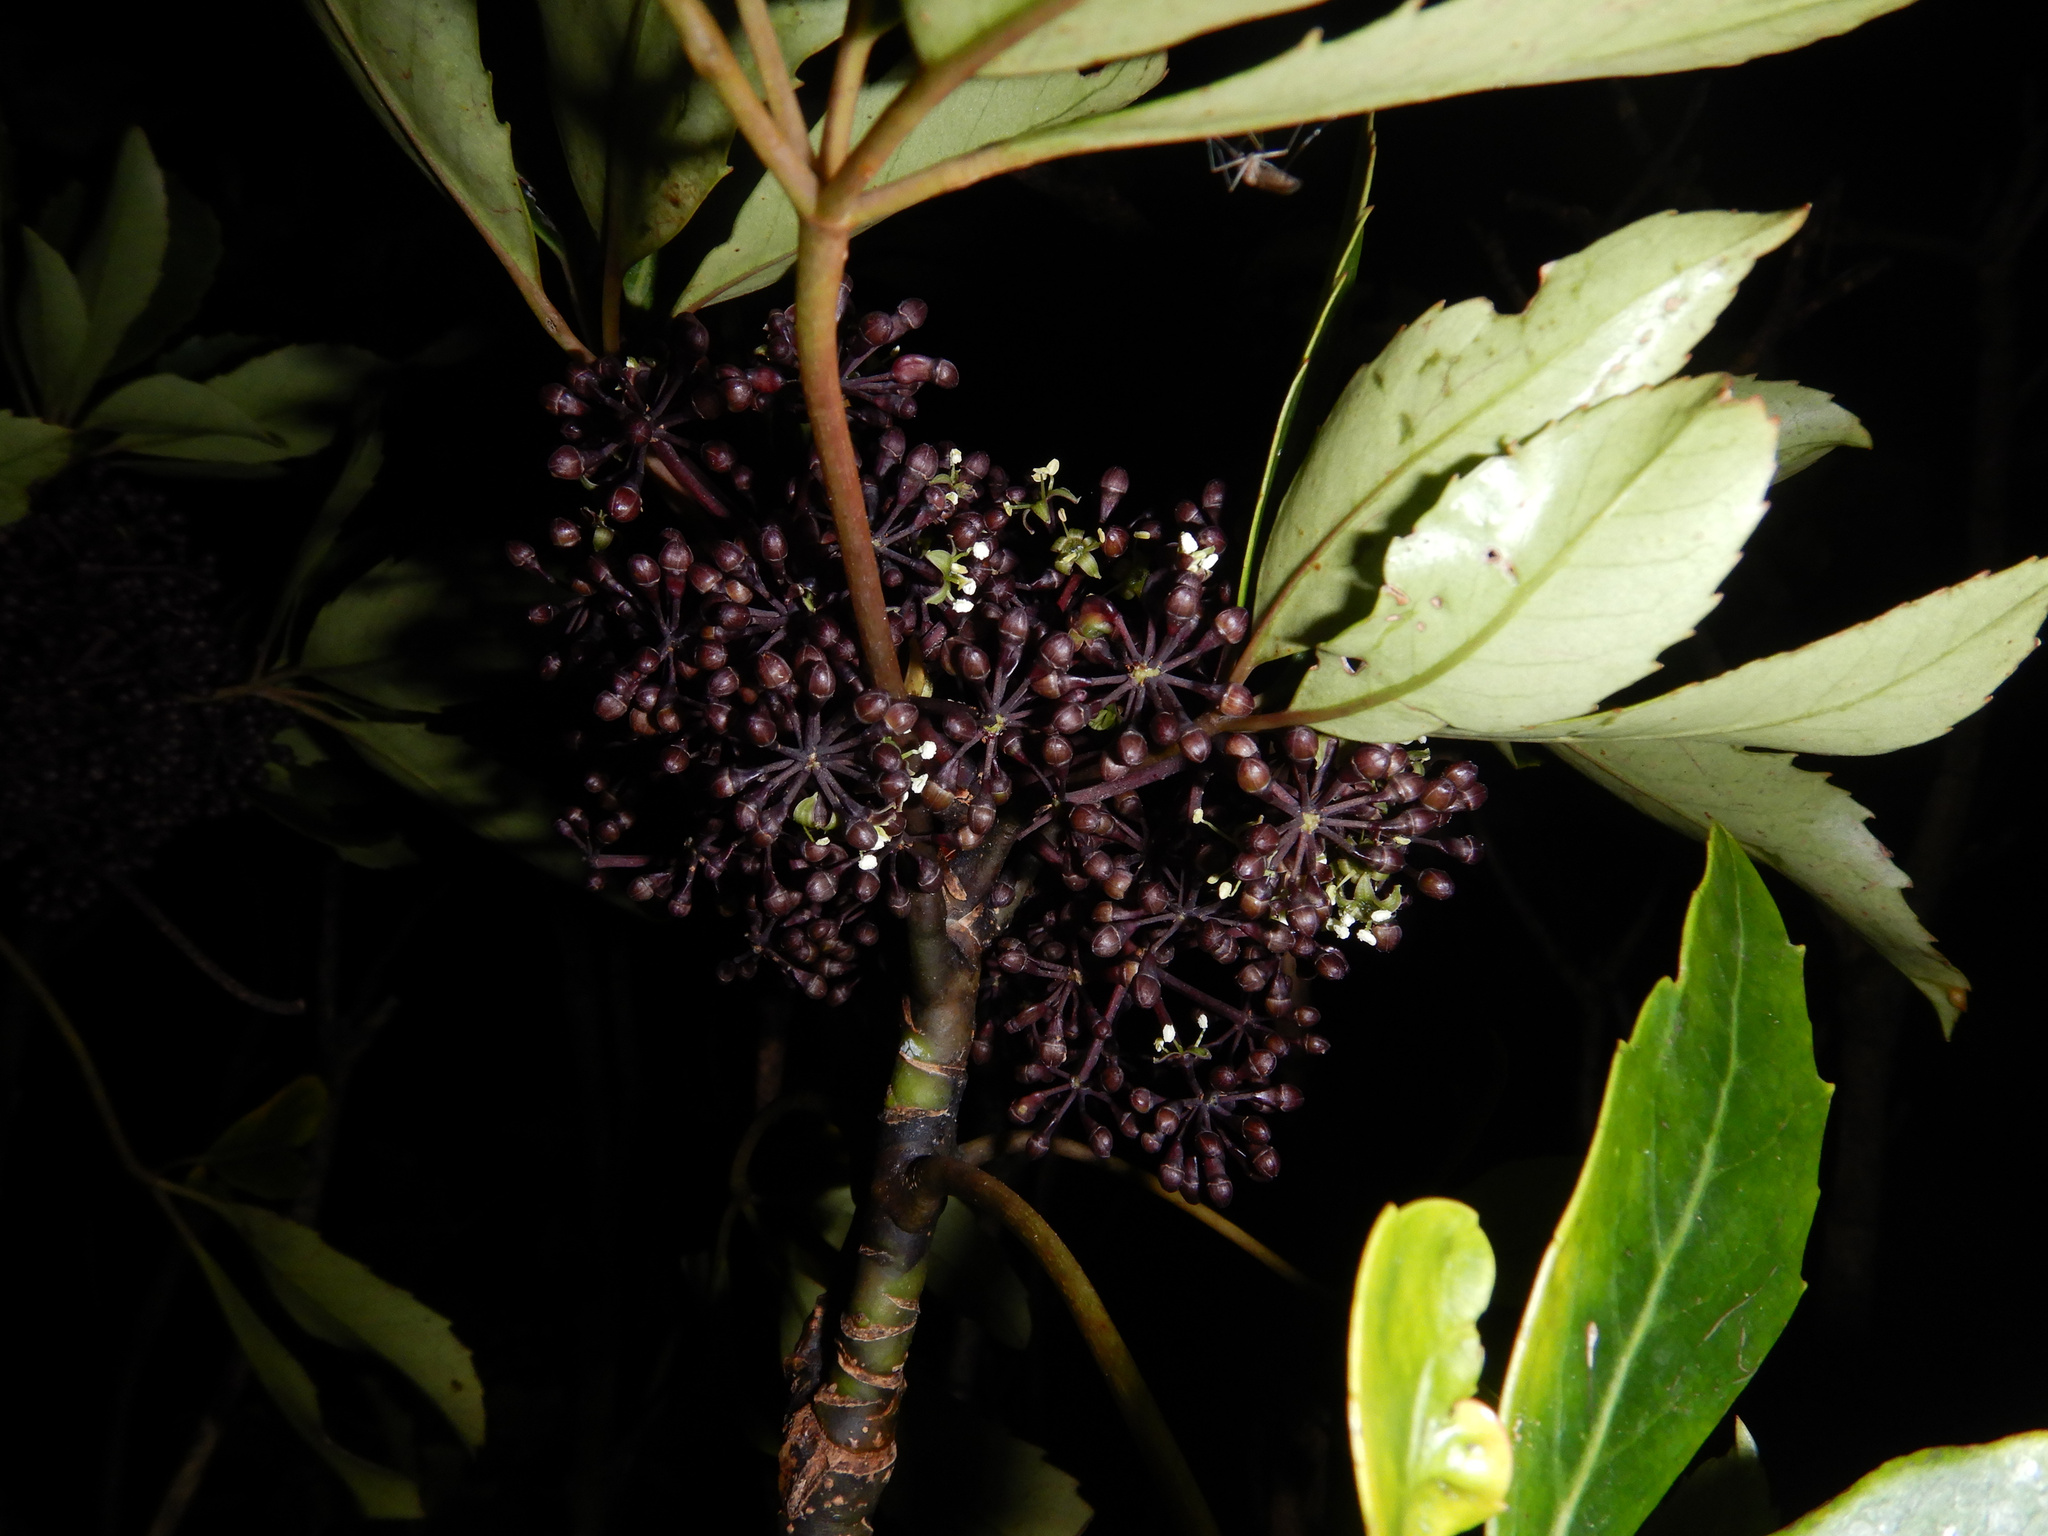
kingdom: Plantae
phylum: Tracheophyta
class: Magnoliopsida
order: Apiales
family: Araliaceae
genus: Neopanax
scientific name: Neopanax arboreus
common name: Five-fingers
